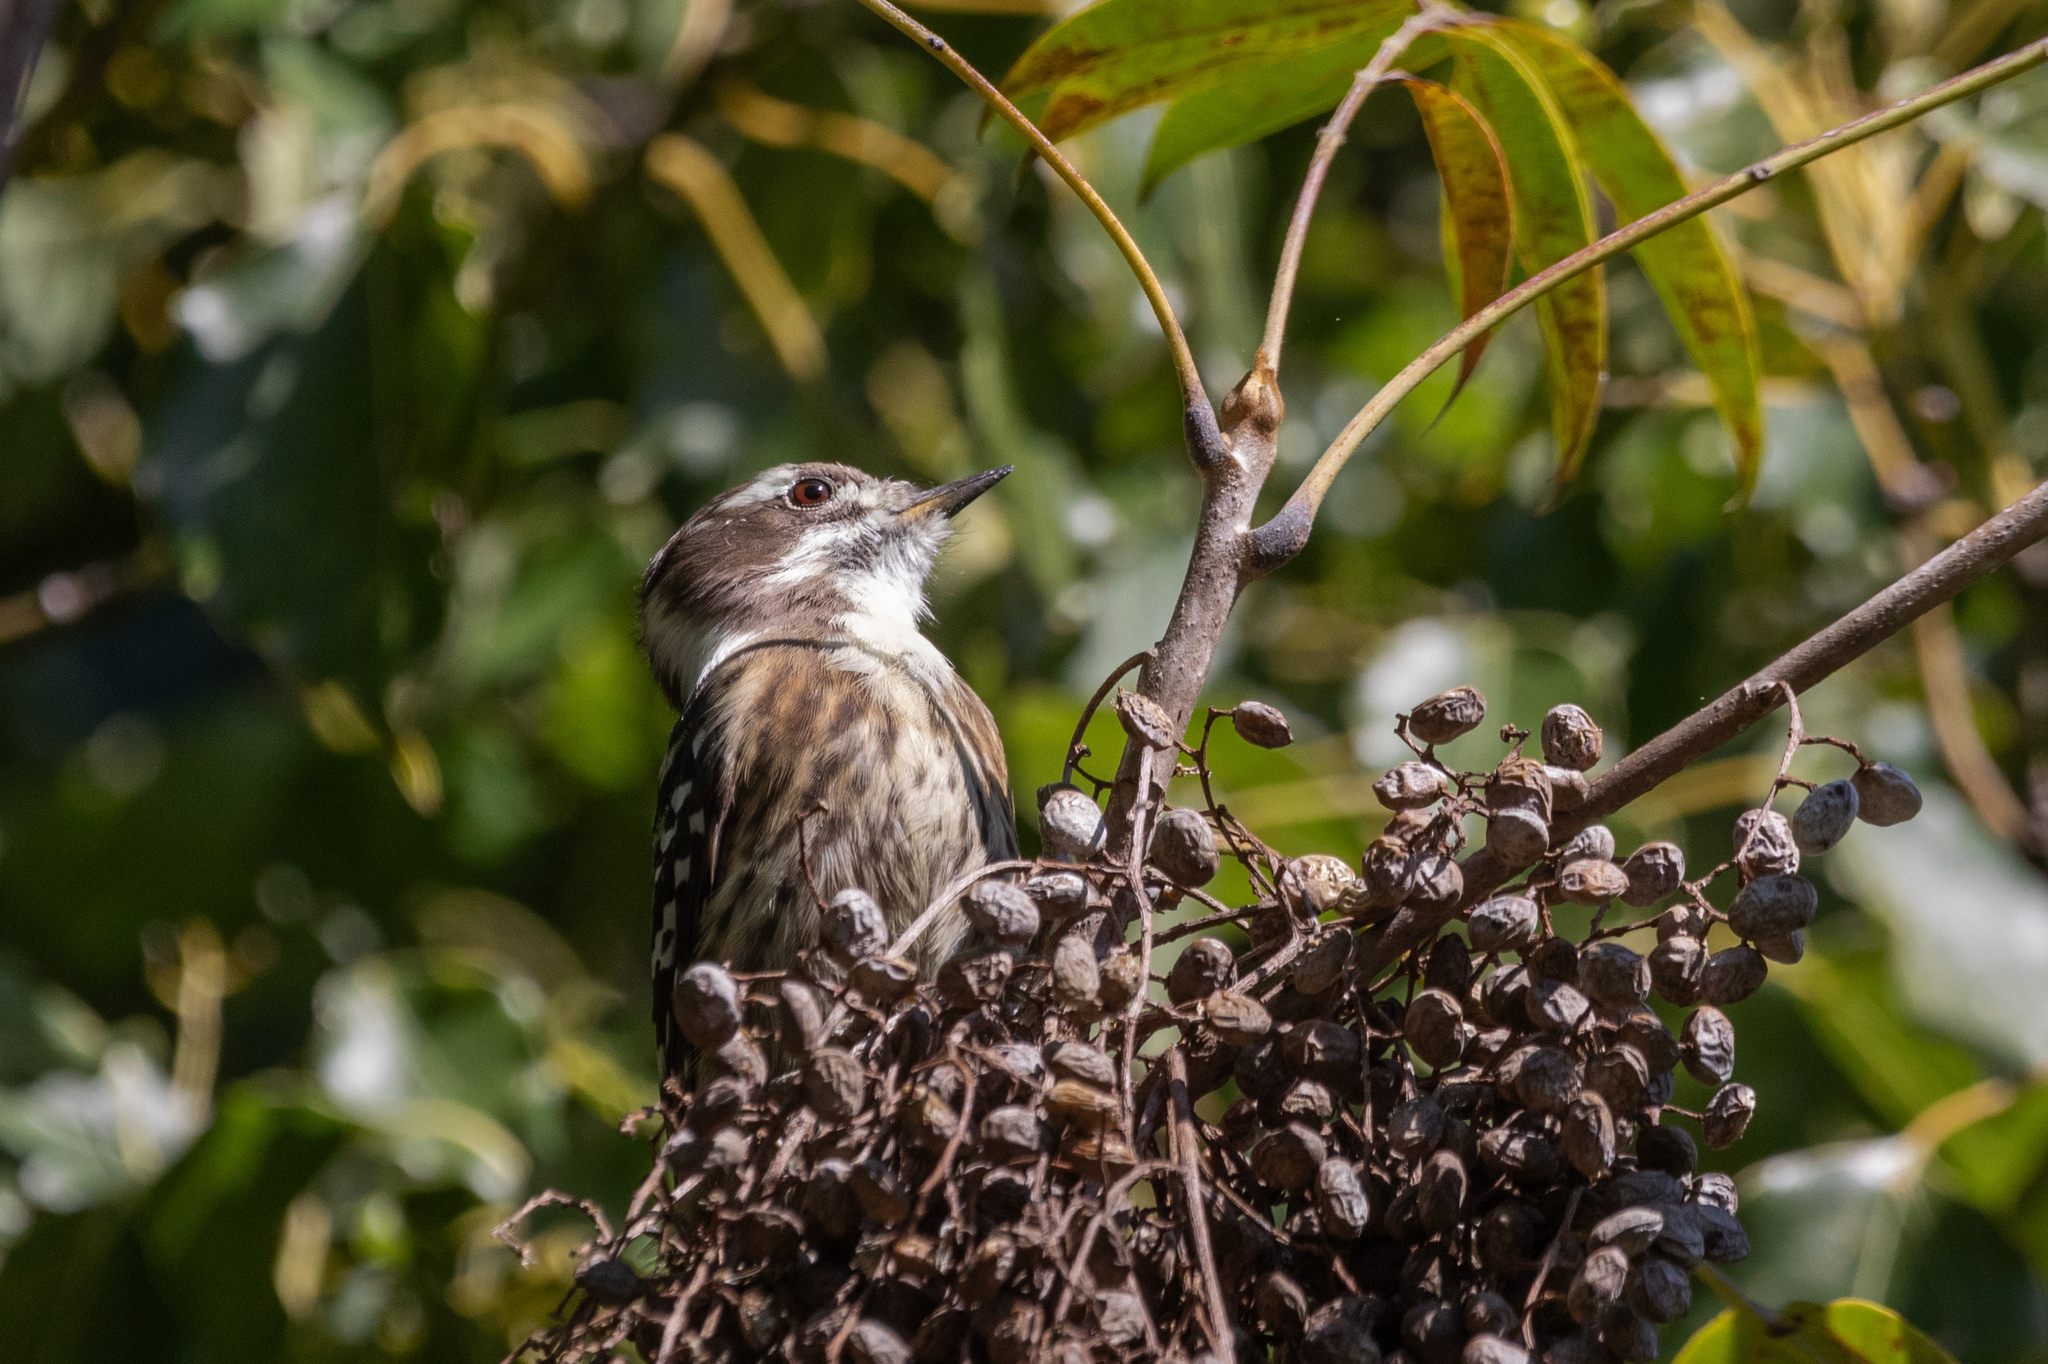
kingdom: Animalia
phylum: Chordata
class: Aves
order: Piciformes
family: Picidae
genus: Yungipicus
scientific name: Yungipicus kizuki
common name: Japanese pygmy woodpecker
